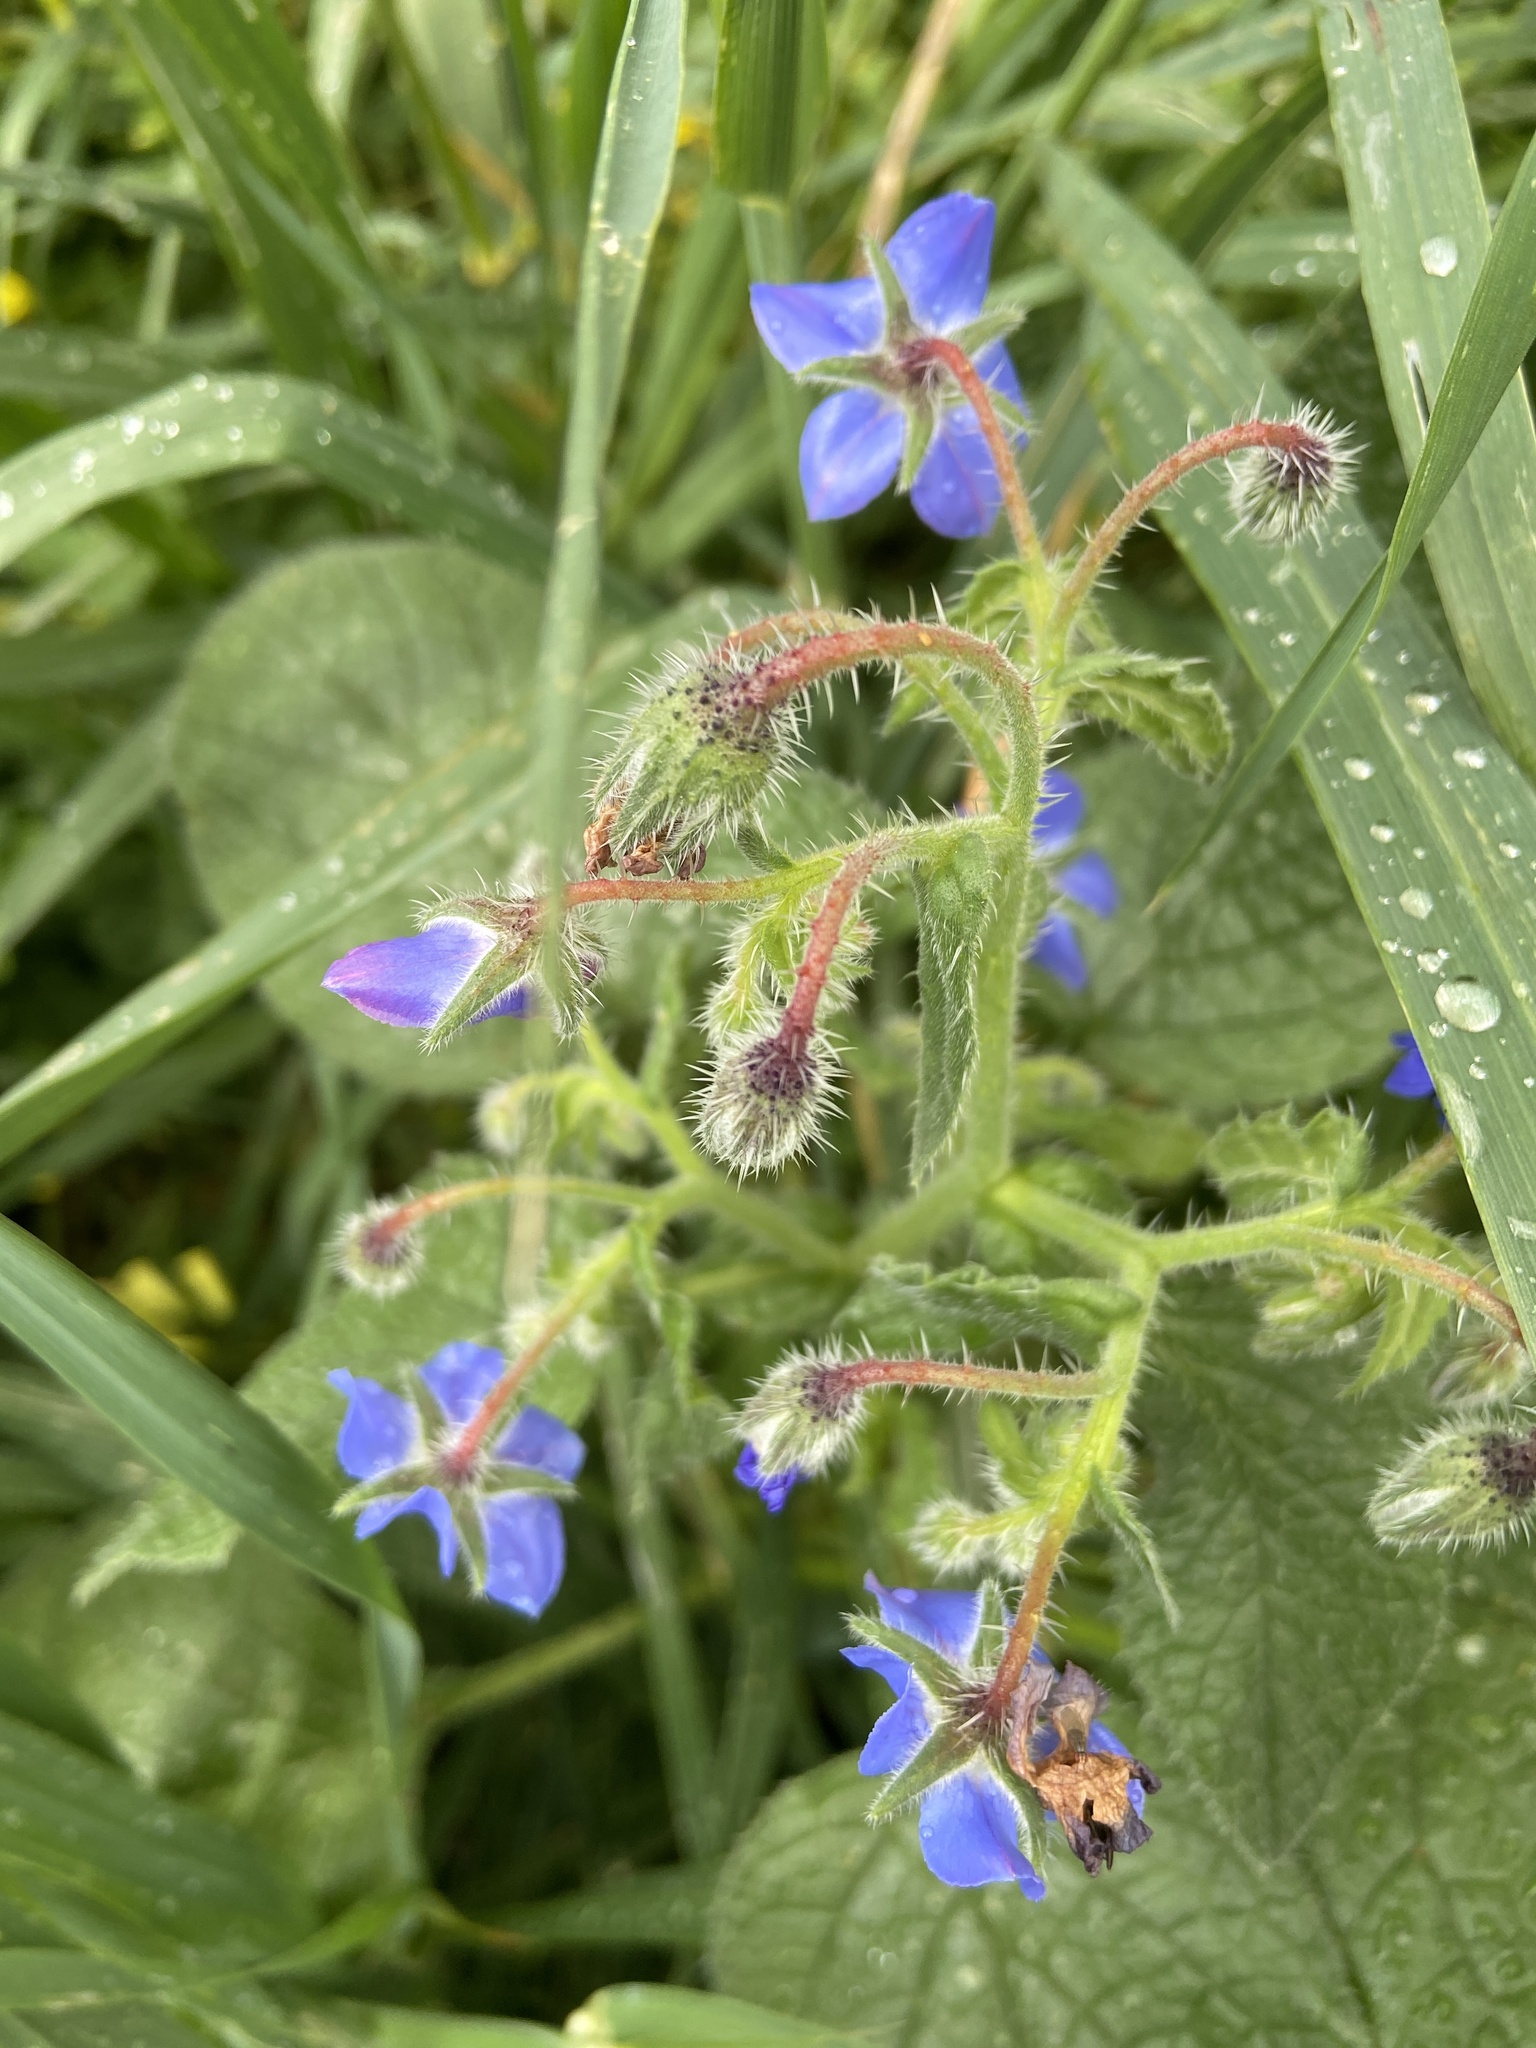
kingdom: Plantae
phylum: Tracheophyta
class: Magnoliopsida
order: Boraginales
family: Boraginaceae
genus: Borago
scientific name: Borago officinalis
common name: Borage
